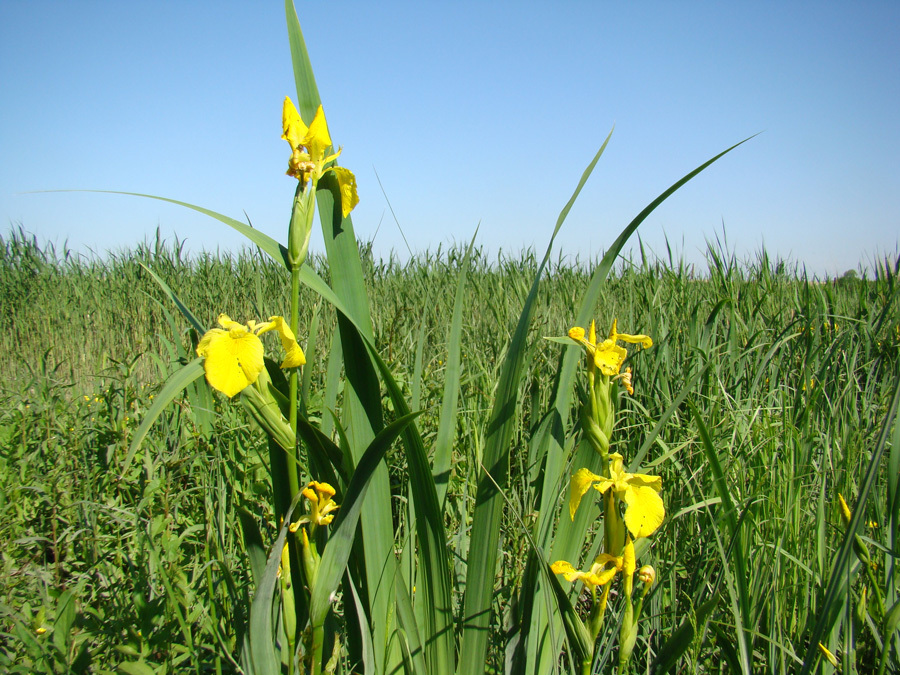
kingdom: Plantae
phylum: Tracheophyta
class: Liliopsida
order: Asparagales
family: Iridaceae
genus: Iris
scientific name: Iris pseudacorus
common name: Yellow flag
